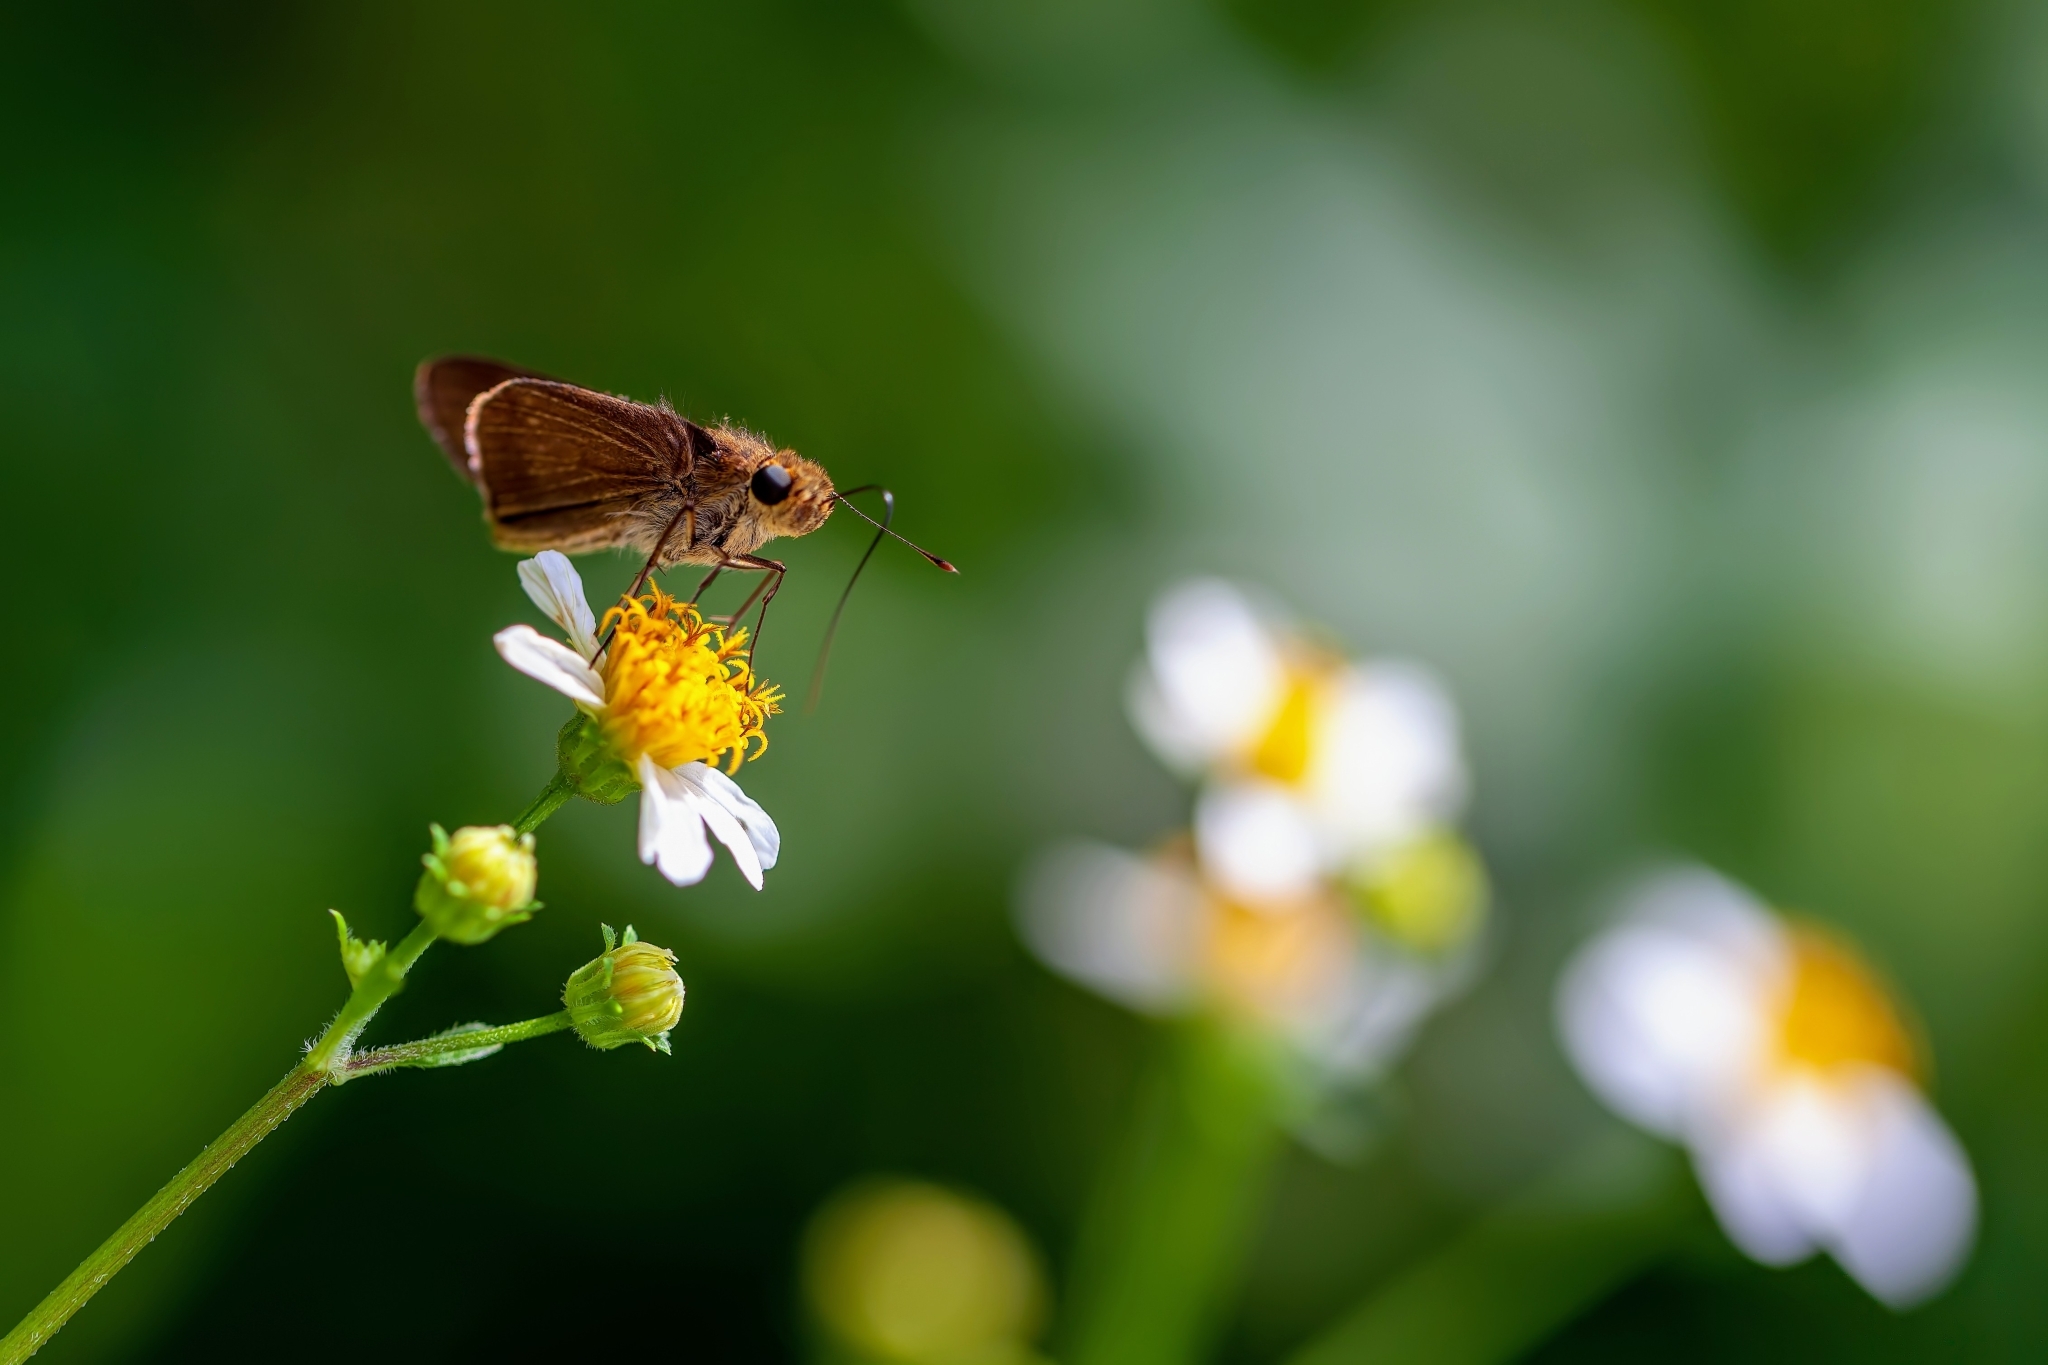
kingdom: Animalia
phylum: Arthropoda
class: Insecta
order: Lepidoptera
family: Hesperiidae
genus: Panoquina
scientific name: Panoquina ocola
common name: Ocola skipper
